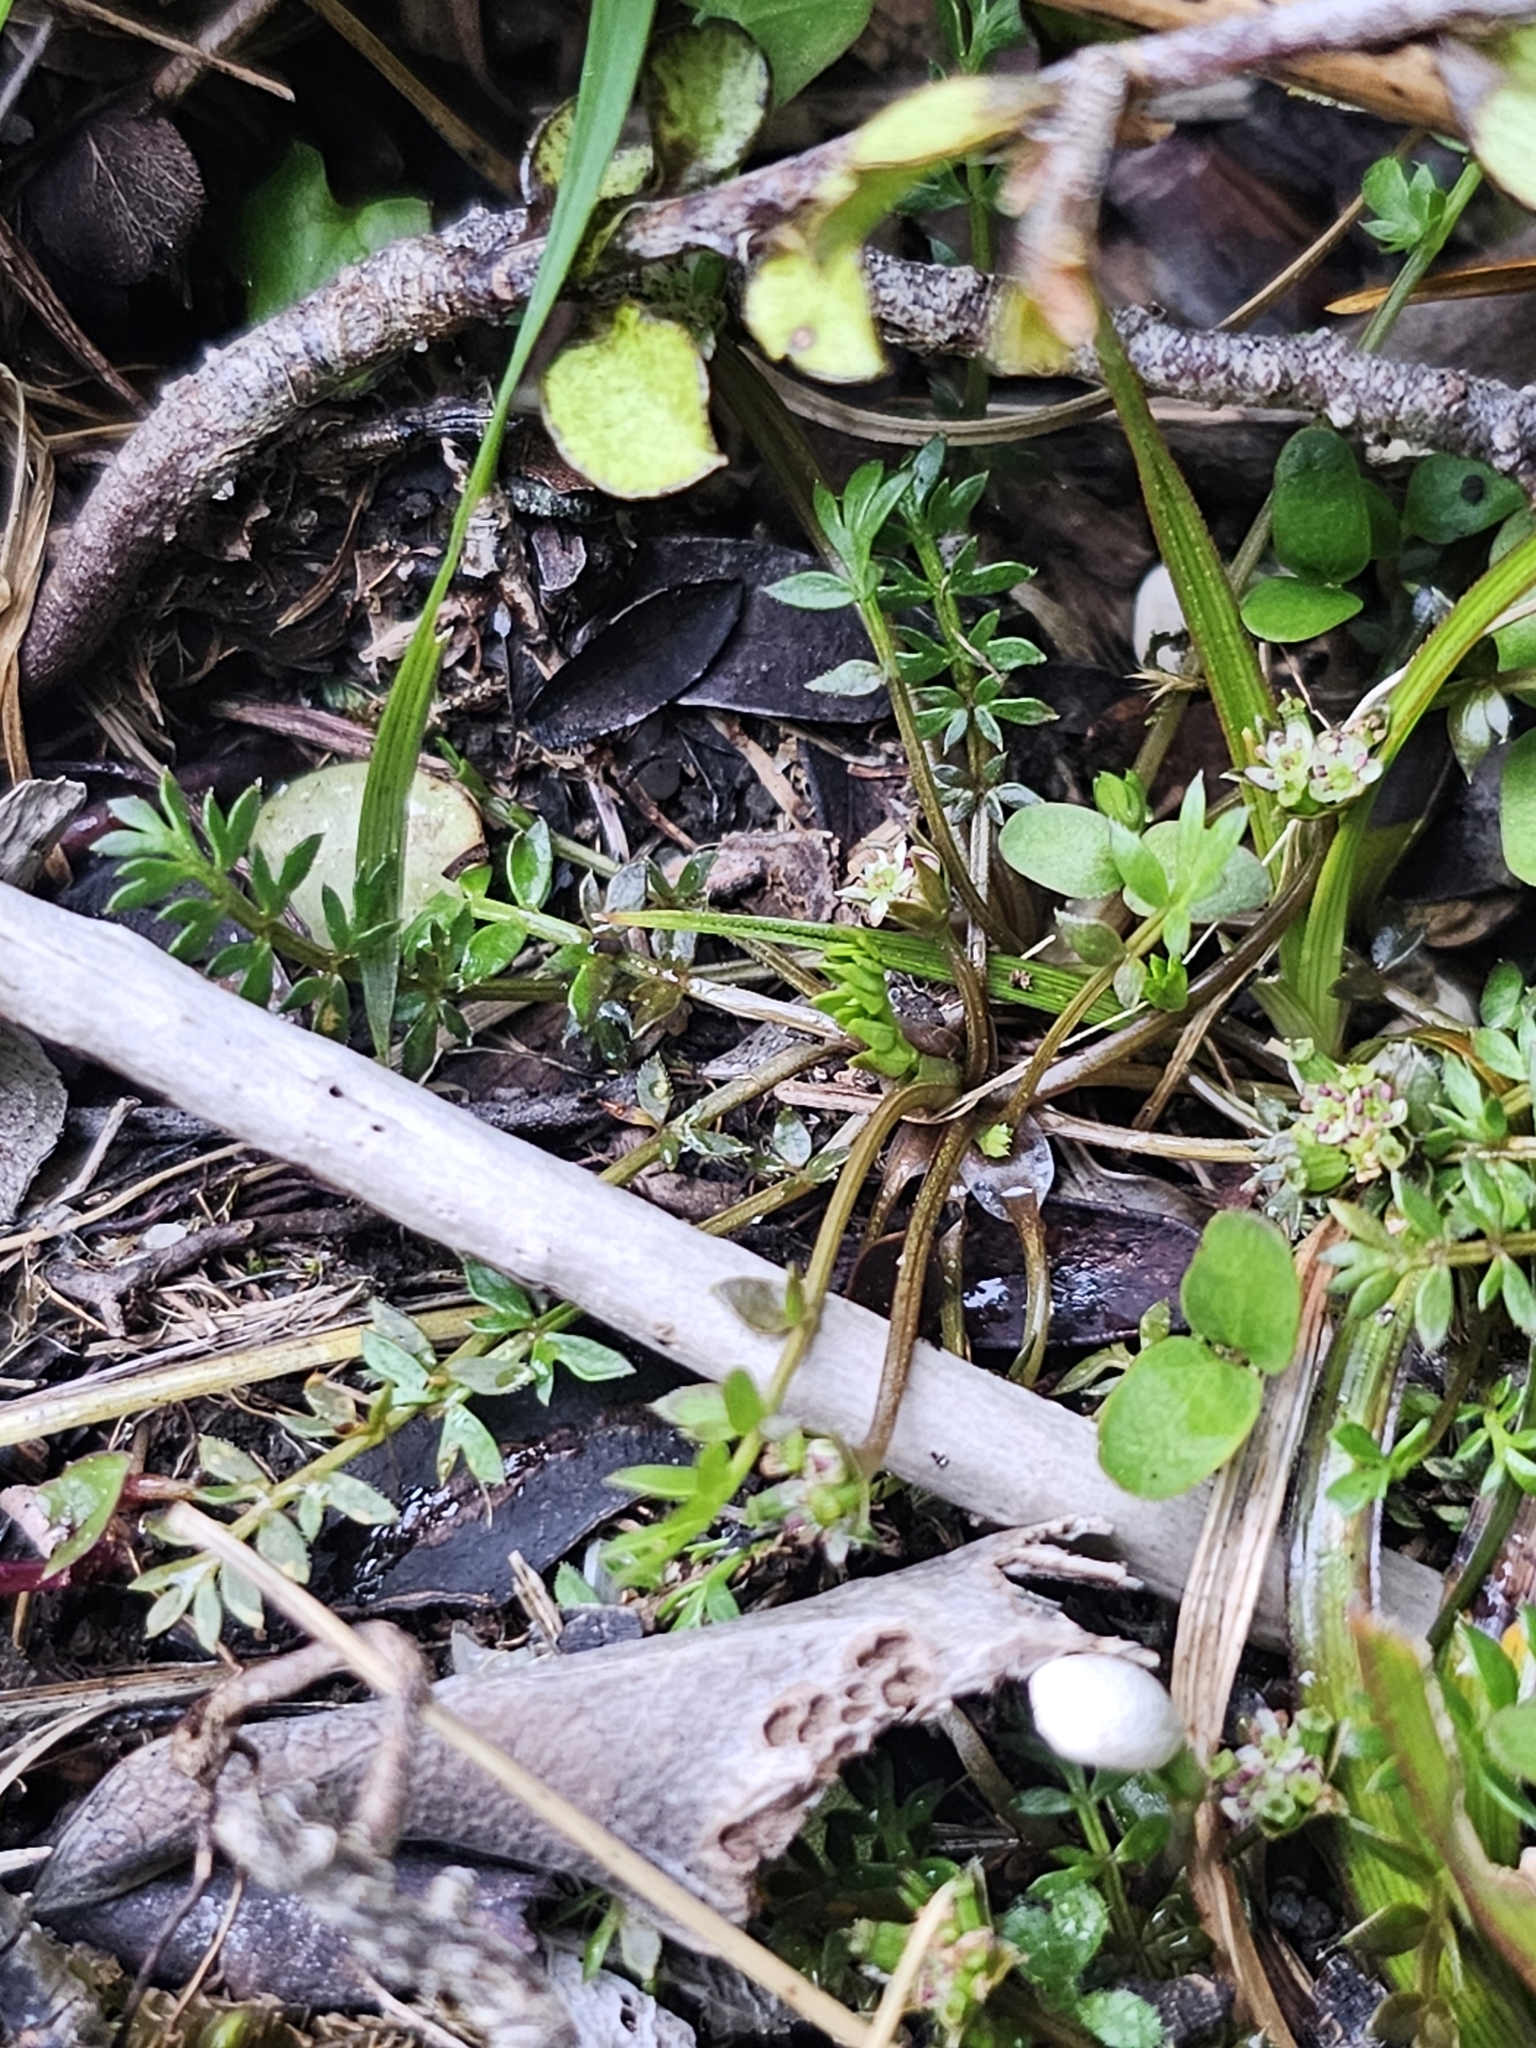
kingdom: Plantae
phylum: Tracheophyta
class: Magnoliopsida
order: Apiales
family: Apiaceae
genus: Chaerophyllum
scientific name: Chaerophyllum colensoi
